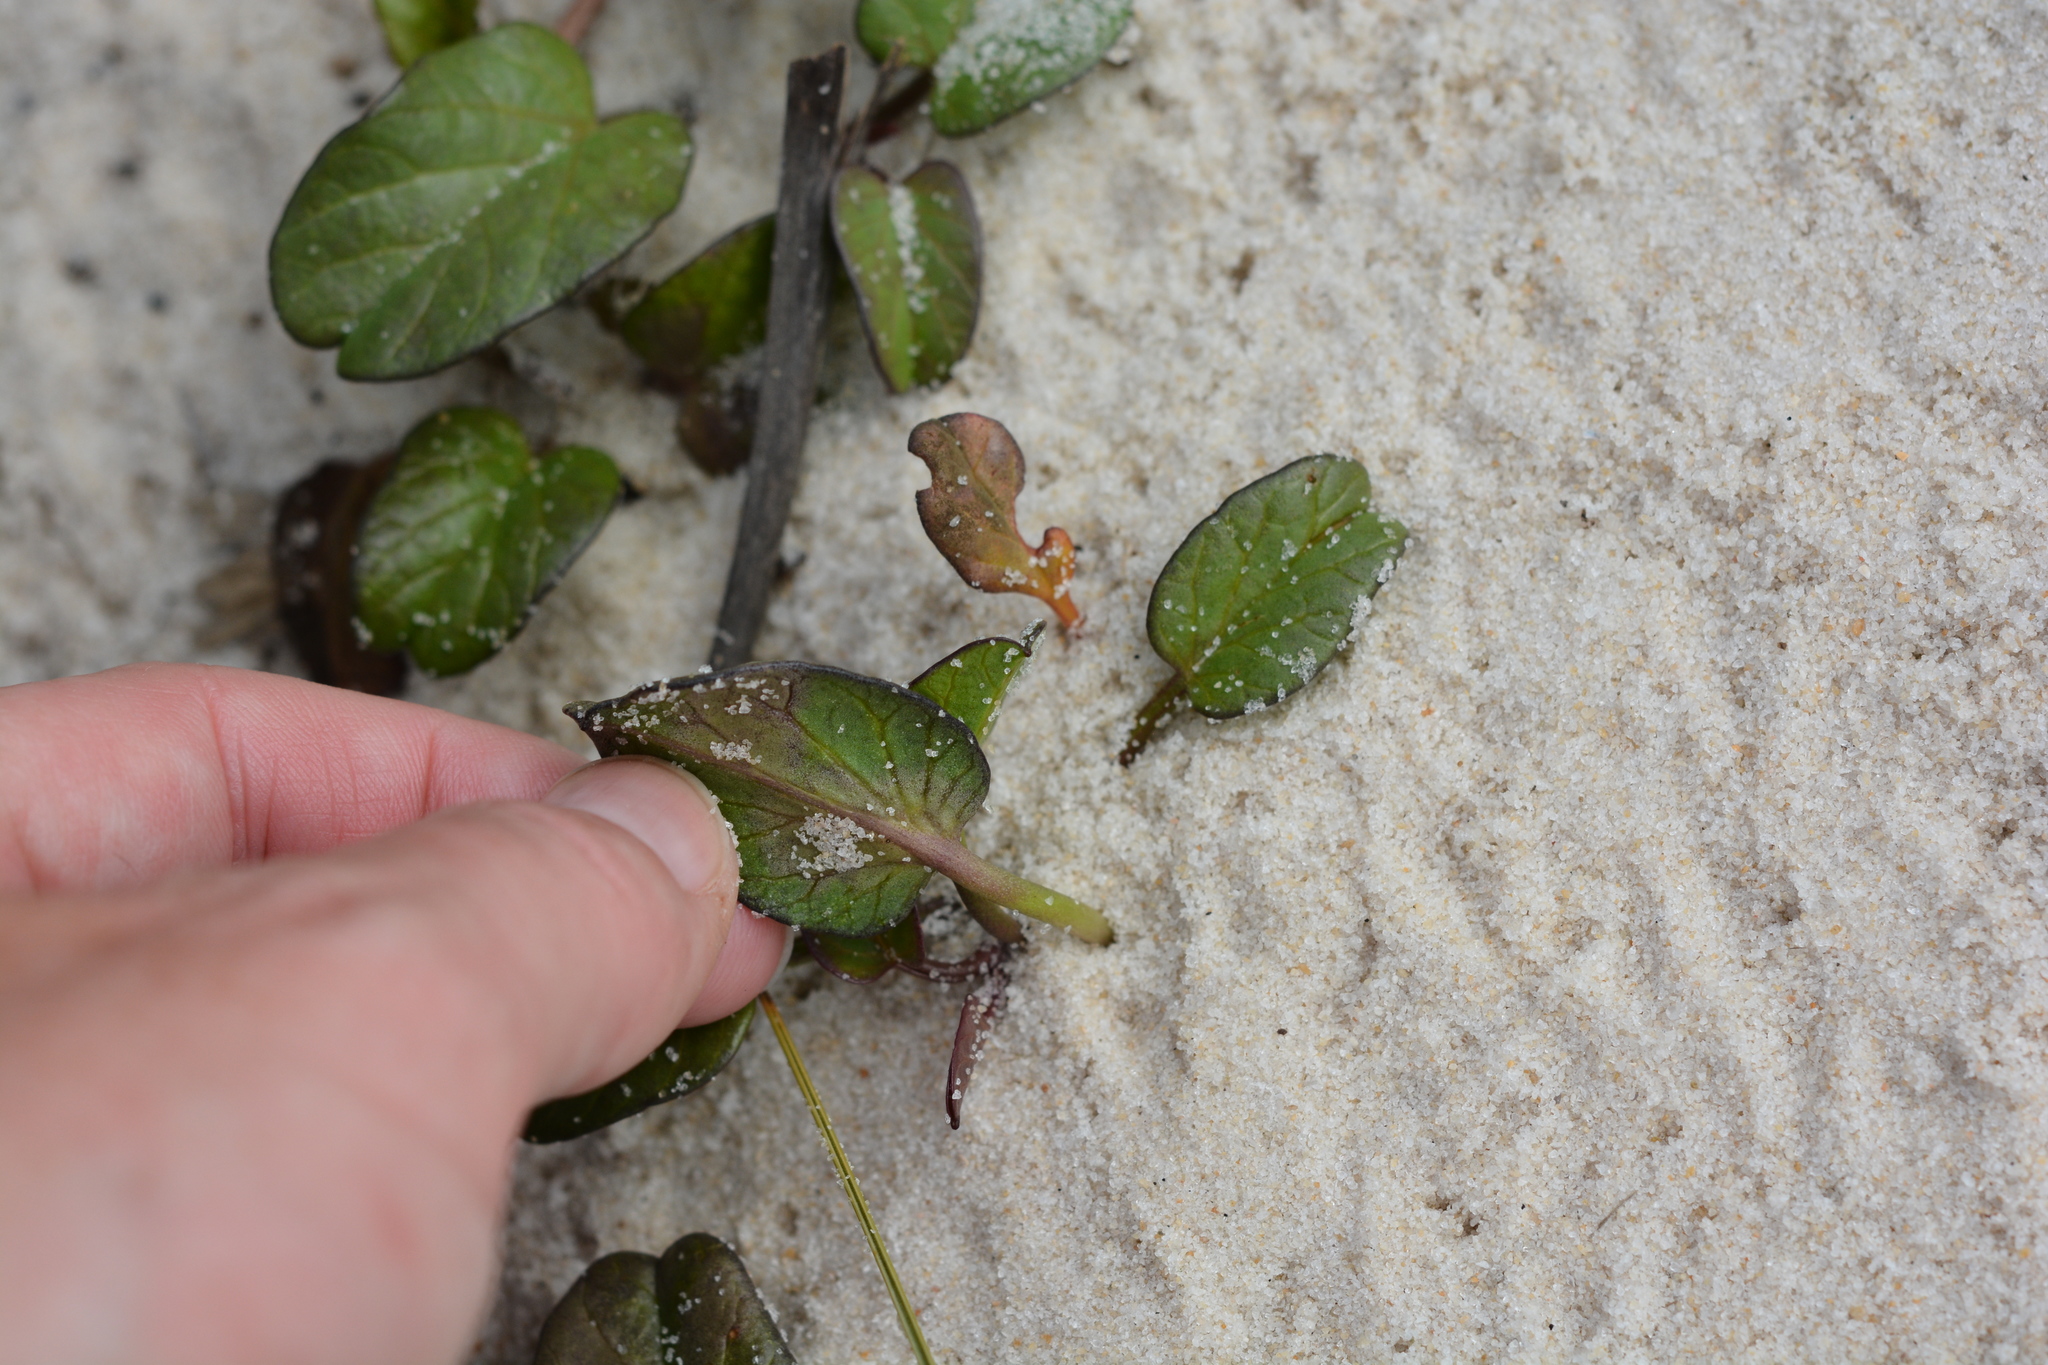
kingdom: Plantae
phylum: Tracheophyta
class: Magnoliopsida
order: Solanales
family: Convolvulaceae
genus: Ipomoea
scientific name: Ipomoea imperati
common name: Fiddle-leaf morning-glory
